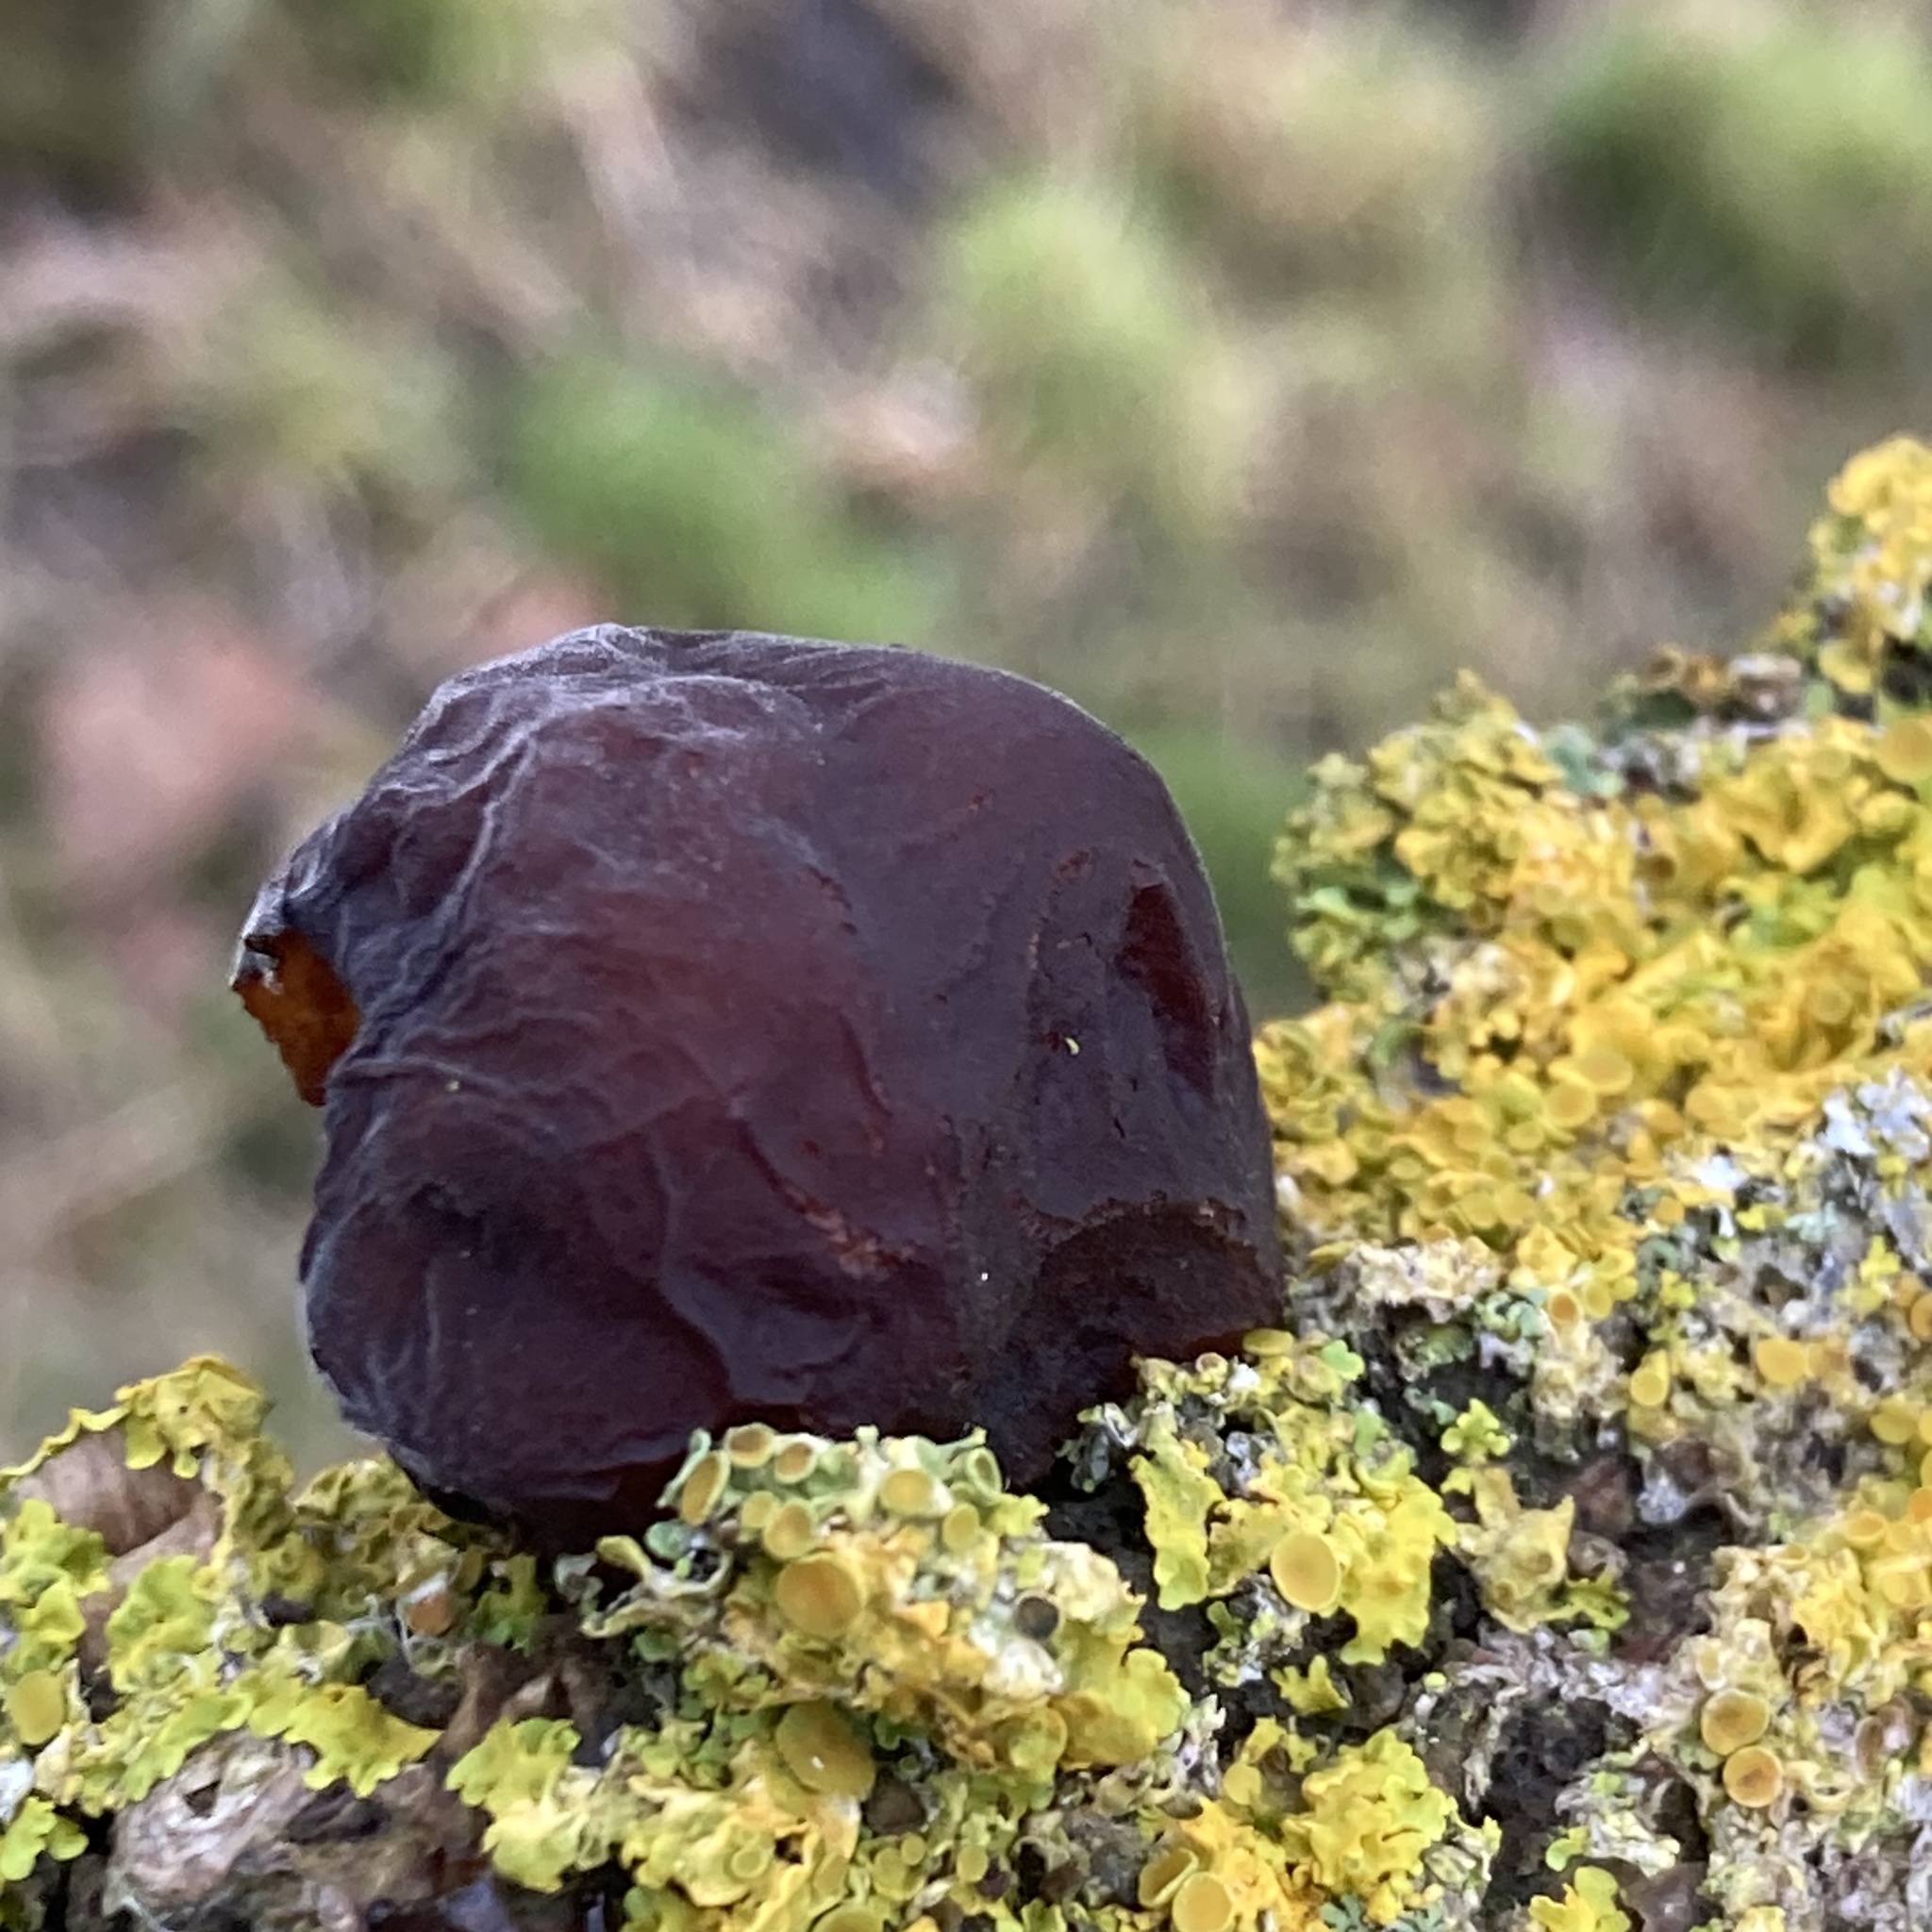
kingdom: Fungi
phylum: Basidiomycota
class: Agaricomycetes
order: Auriculariales
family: Auriculariaceae
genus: Auricularia
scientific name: Auricularia auricula-judae
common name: Jelly ear
